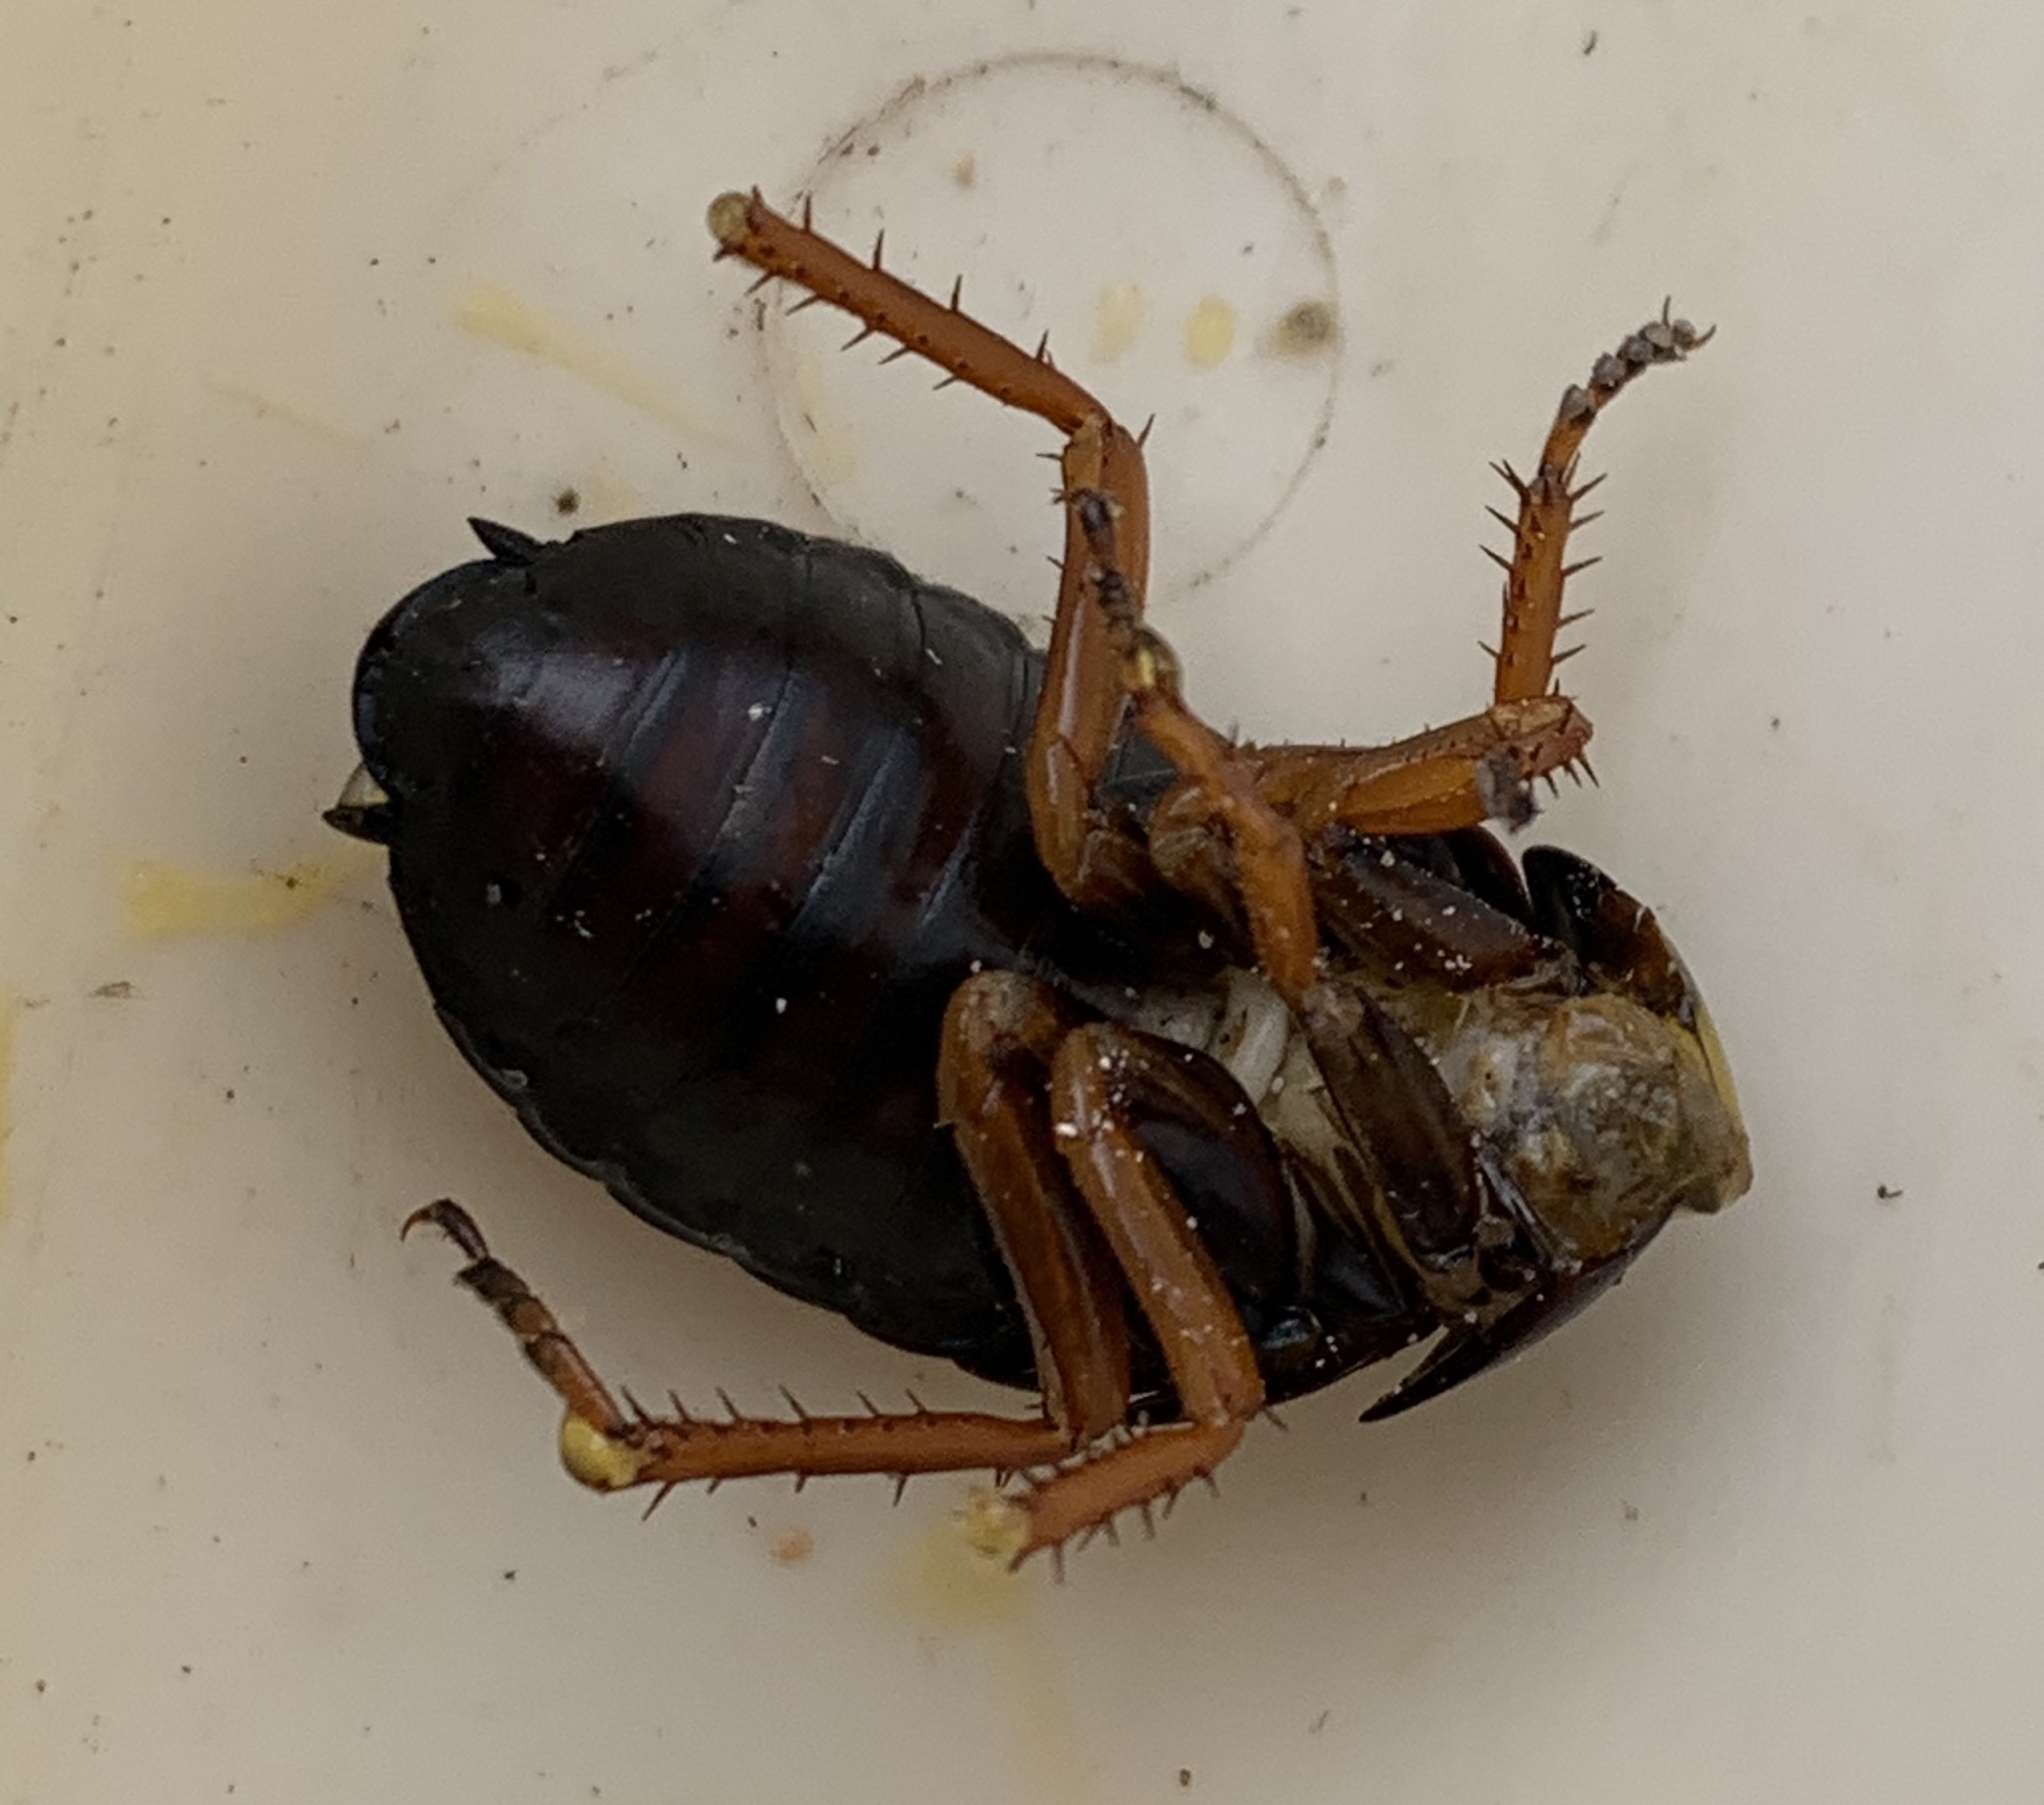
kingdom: Animalia
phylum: Arthropoda
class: Insecta
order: Blattodea
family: Blattidae
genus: Deropeltis
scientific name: Deropeltis erythrocephala
